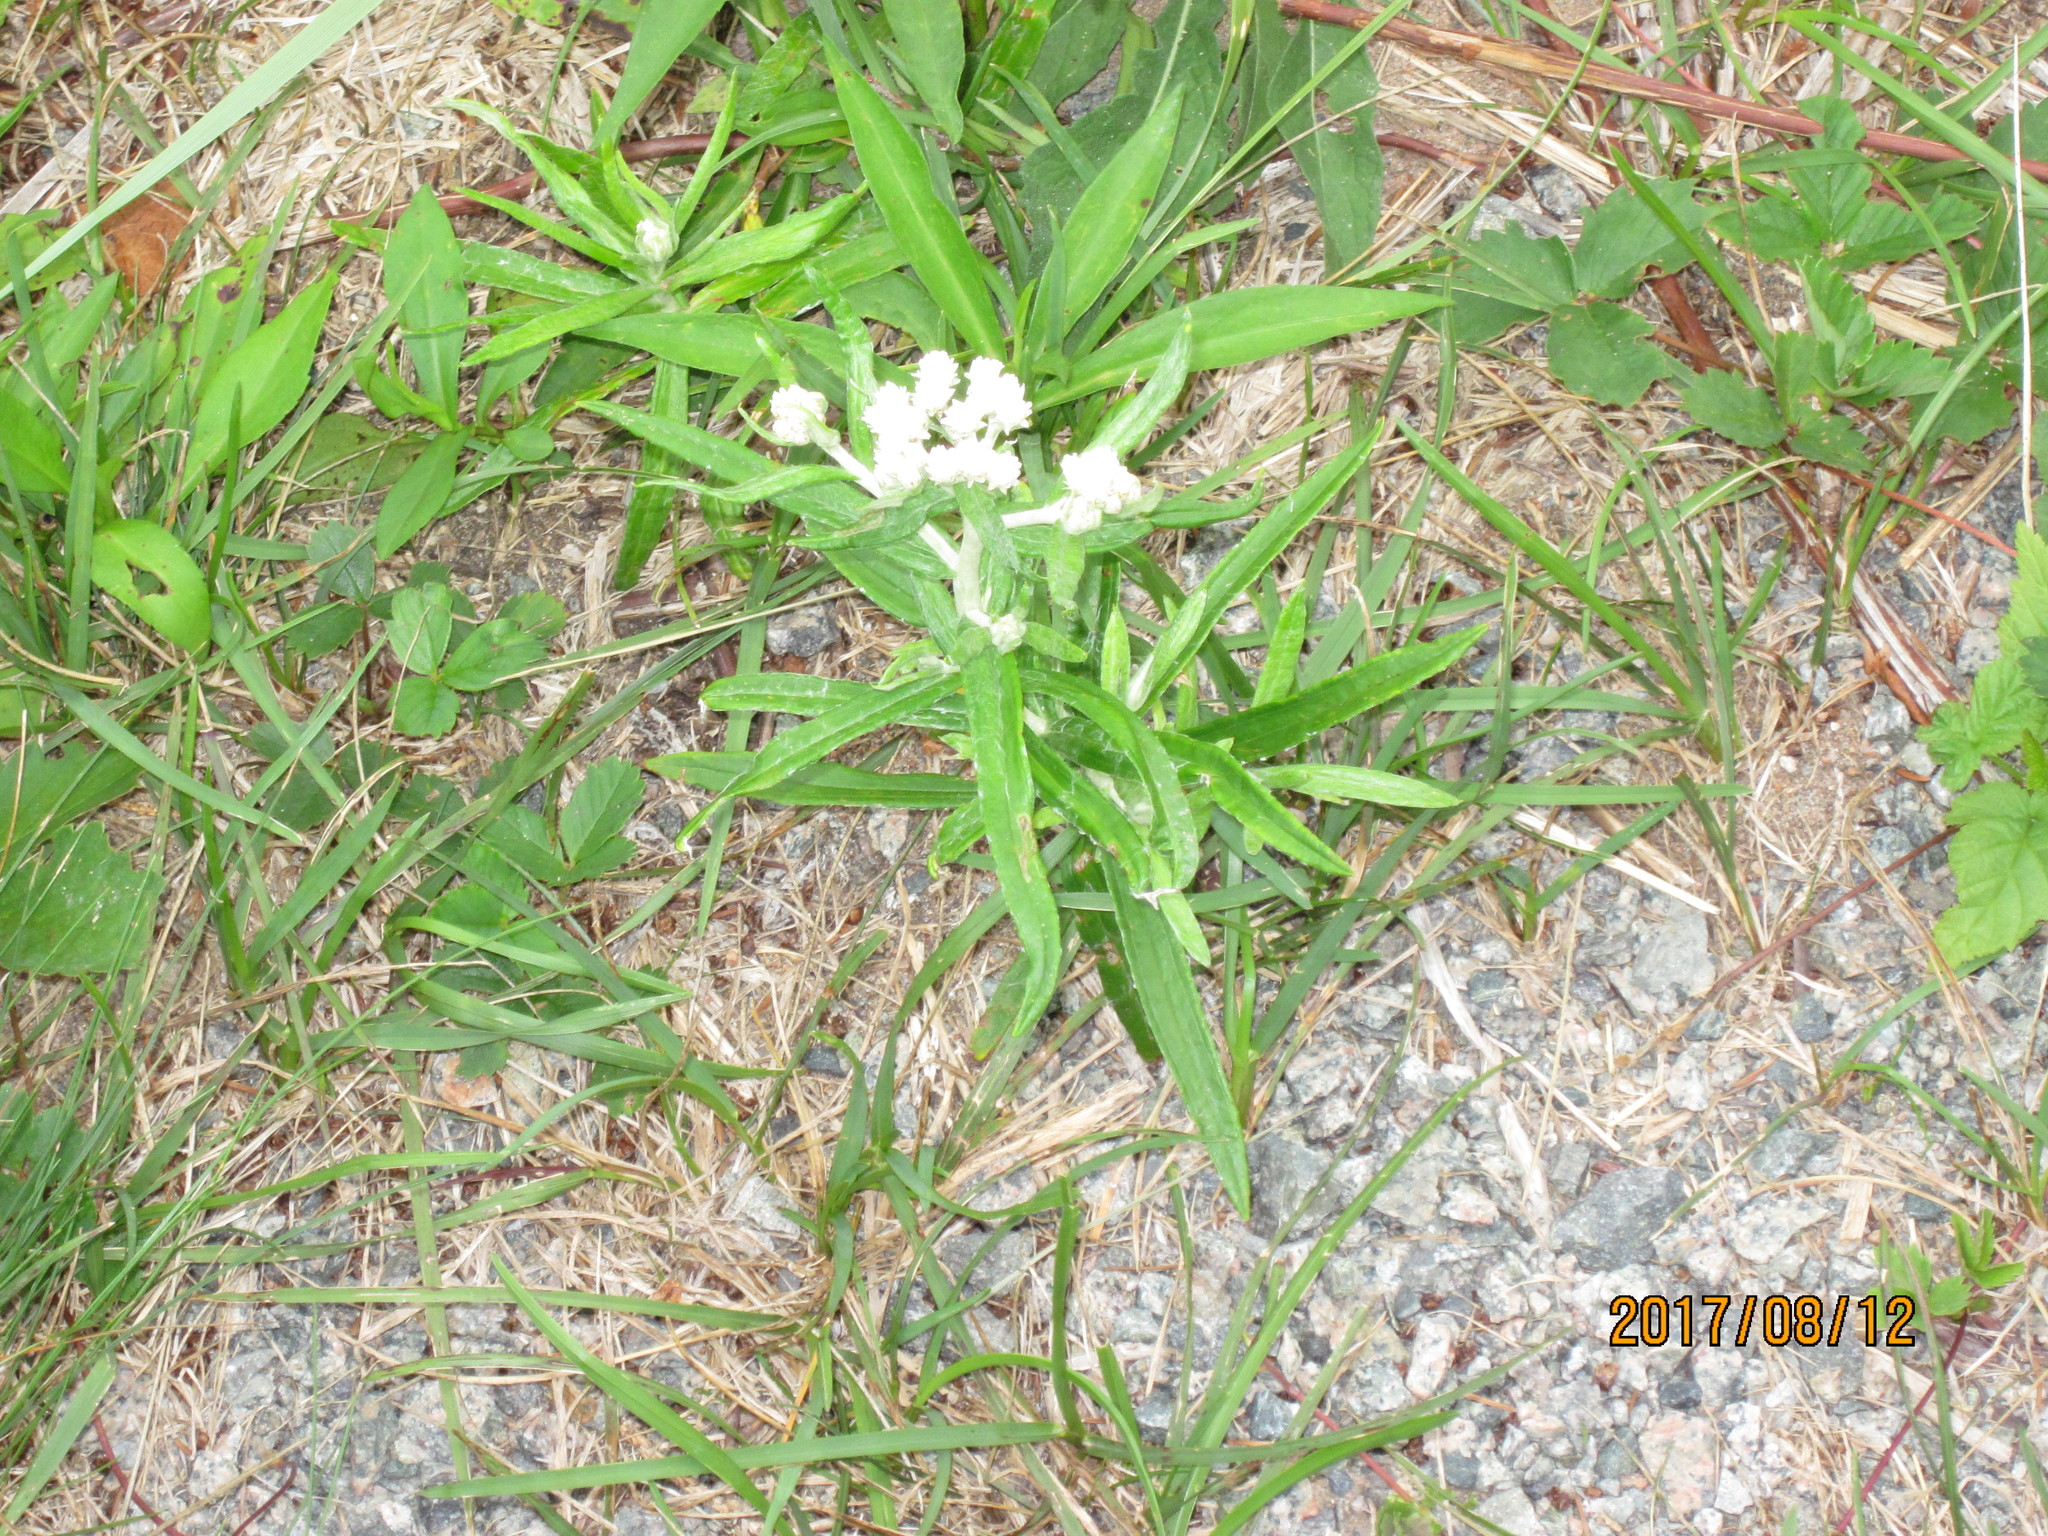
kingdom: Plantae
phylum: Tracheophyta
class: Magnoliopsida
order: Asterales
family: Asteraceae
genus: Anaphalis
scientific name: Anaphalis margaritacea
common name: Pearly everlasting
